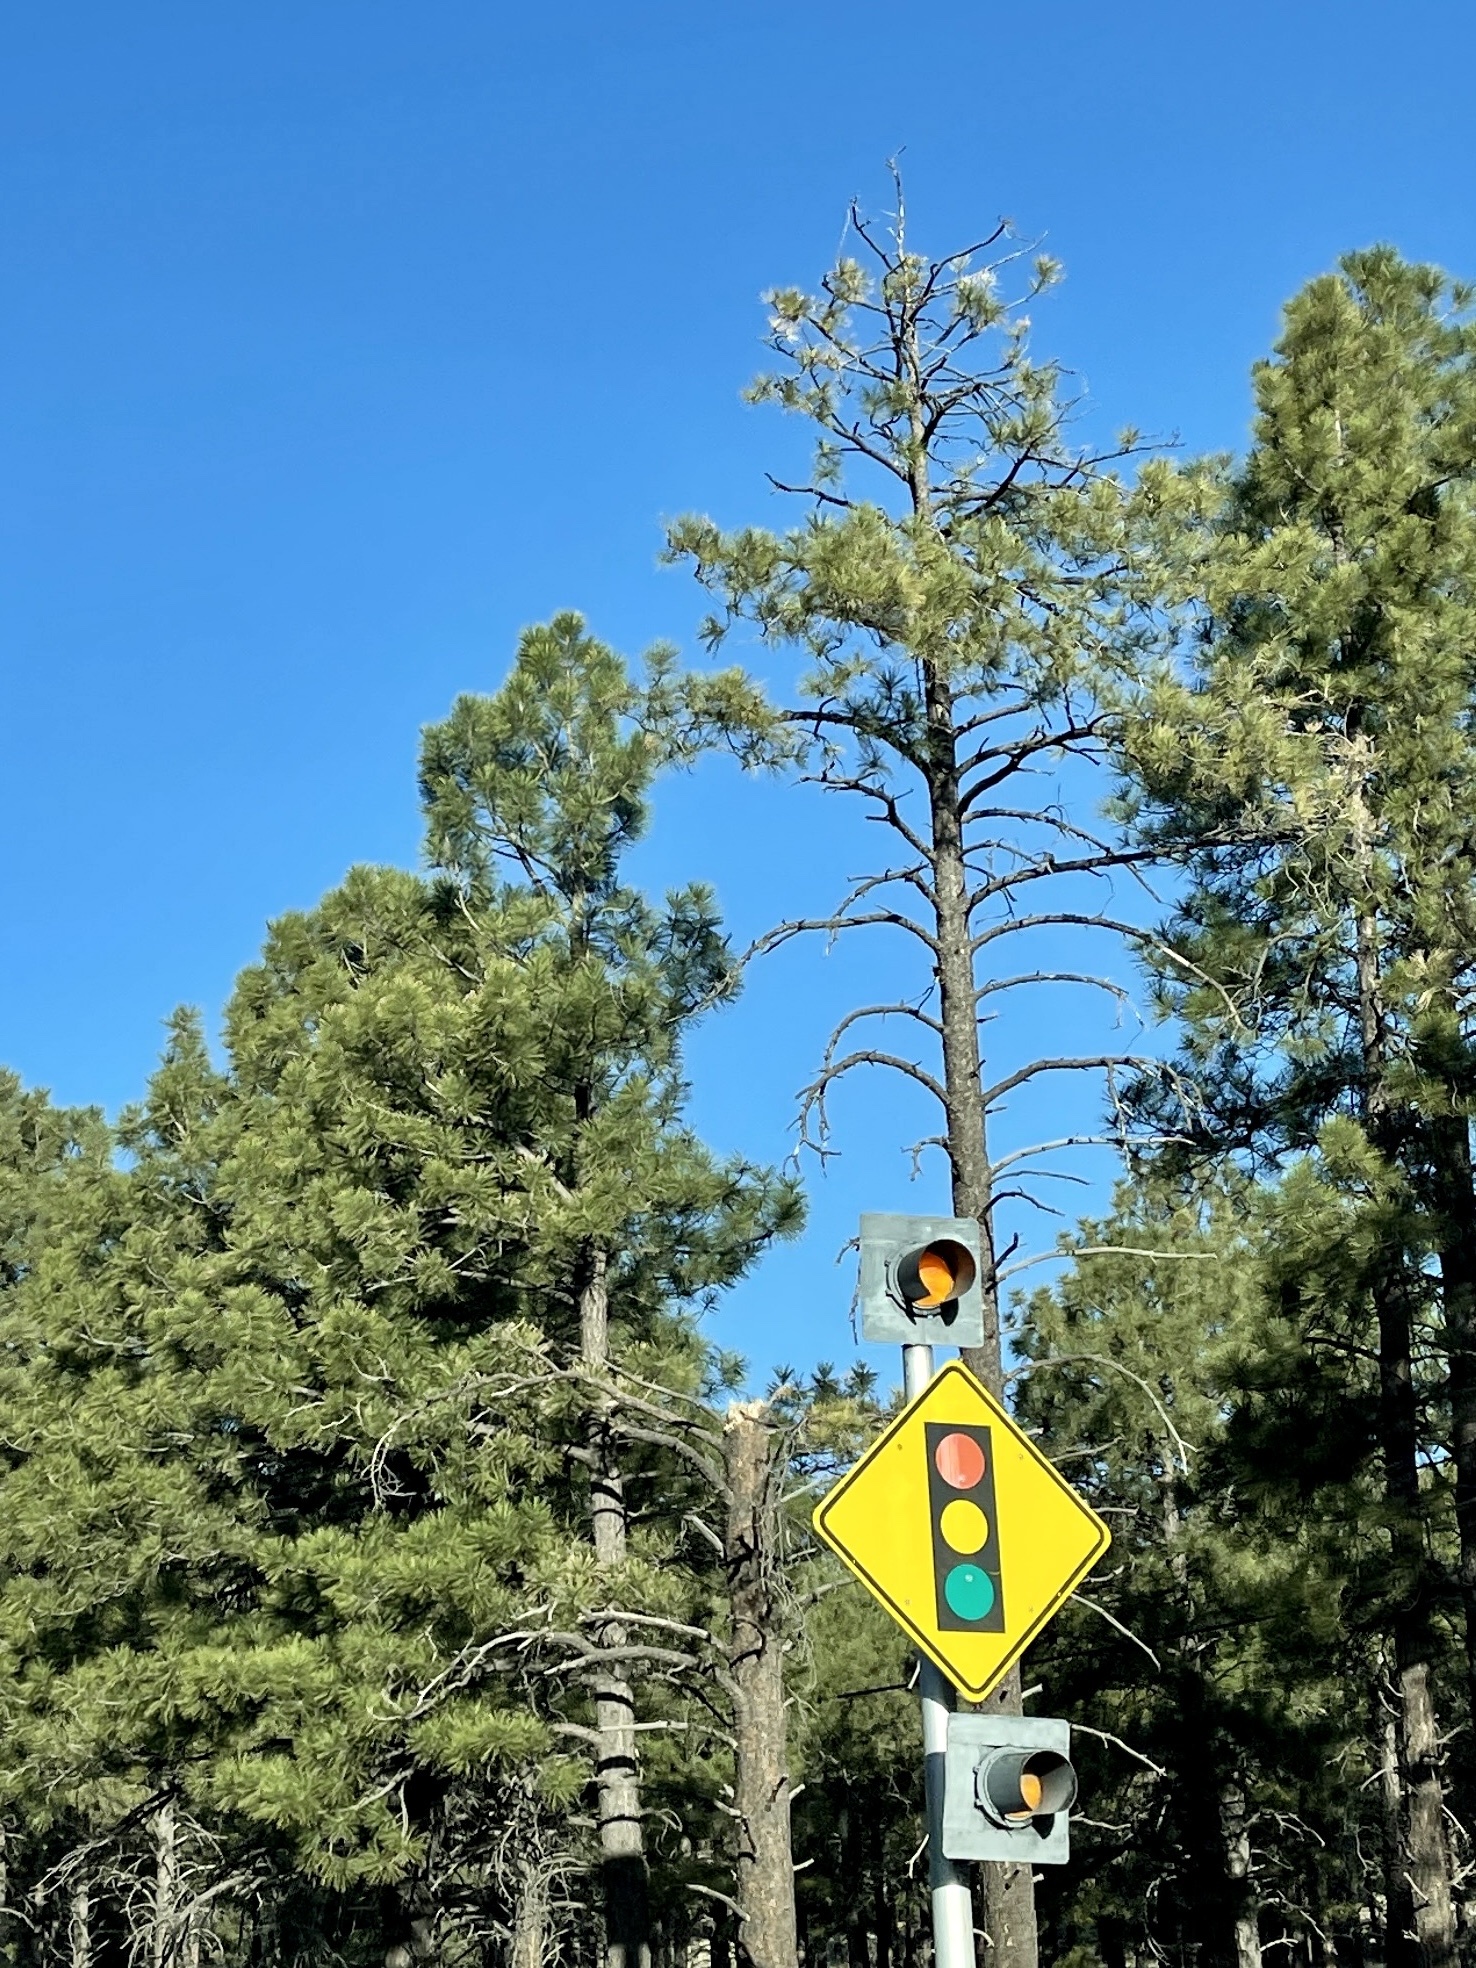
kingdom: Plantae
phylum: Tracheophyta
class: Pinopsida
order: Pinales
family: Pinaceae
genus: Pinus
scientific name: Pinus ponderosa
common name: Western yellow-pine
